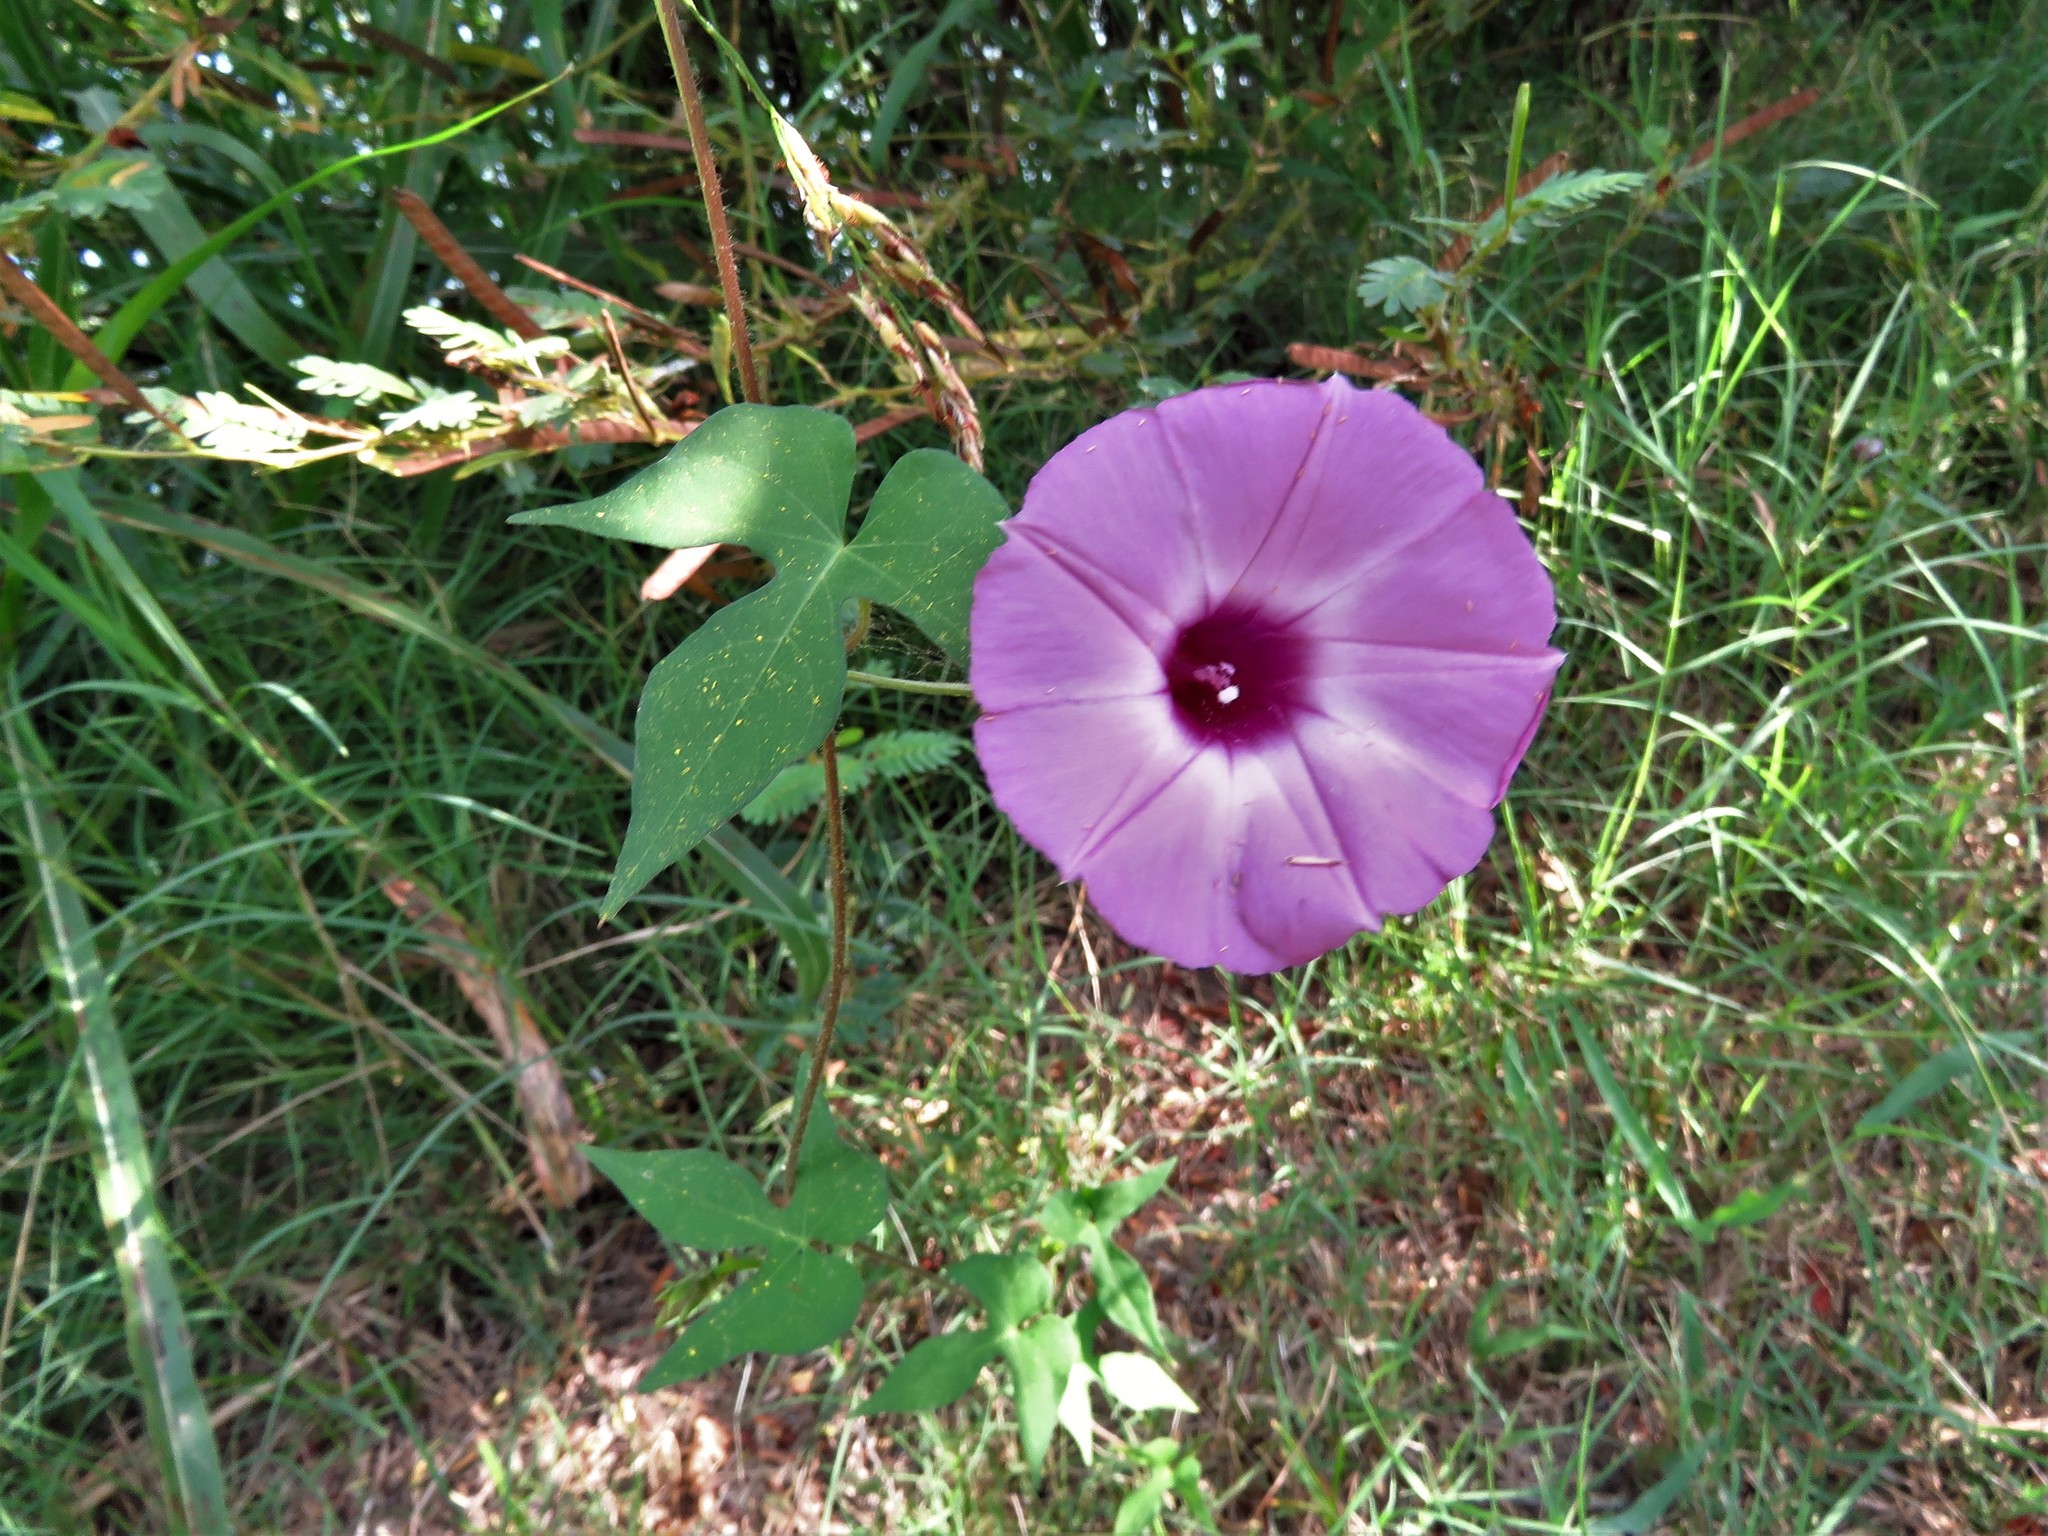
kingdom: Plantae
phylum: Tracheophyta
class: Magnoliopsida
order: Solanales
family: Convolvulaceae
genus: Ipomoea
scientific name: Ipomoea cordatotriloba
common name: Cotton morning glory
